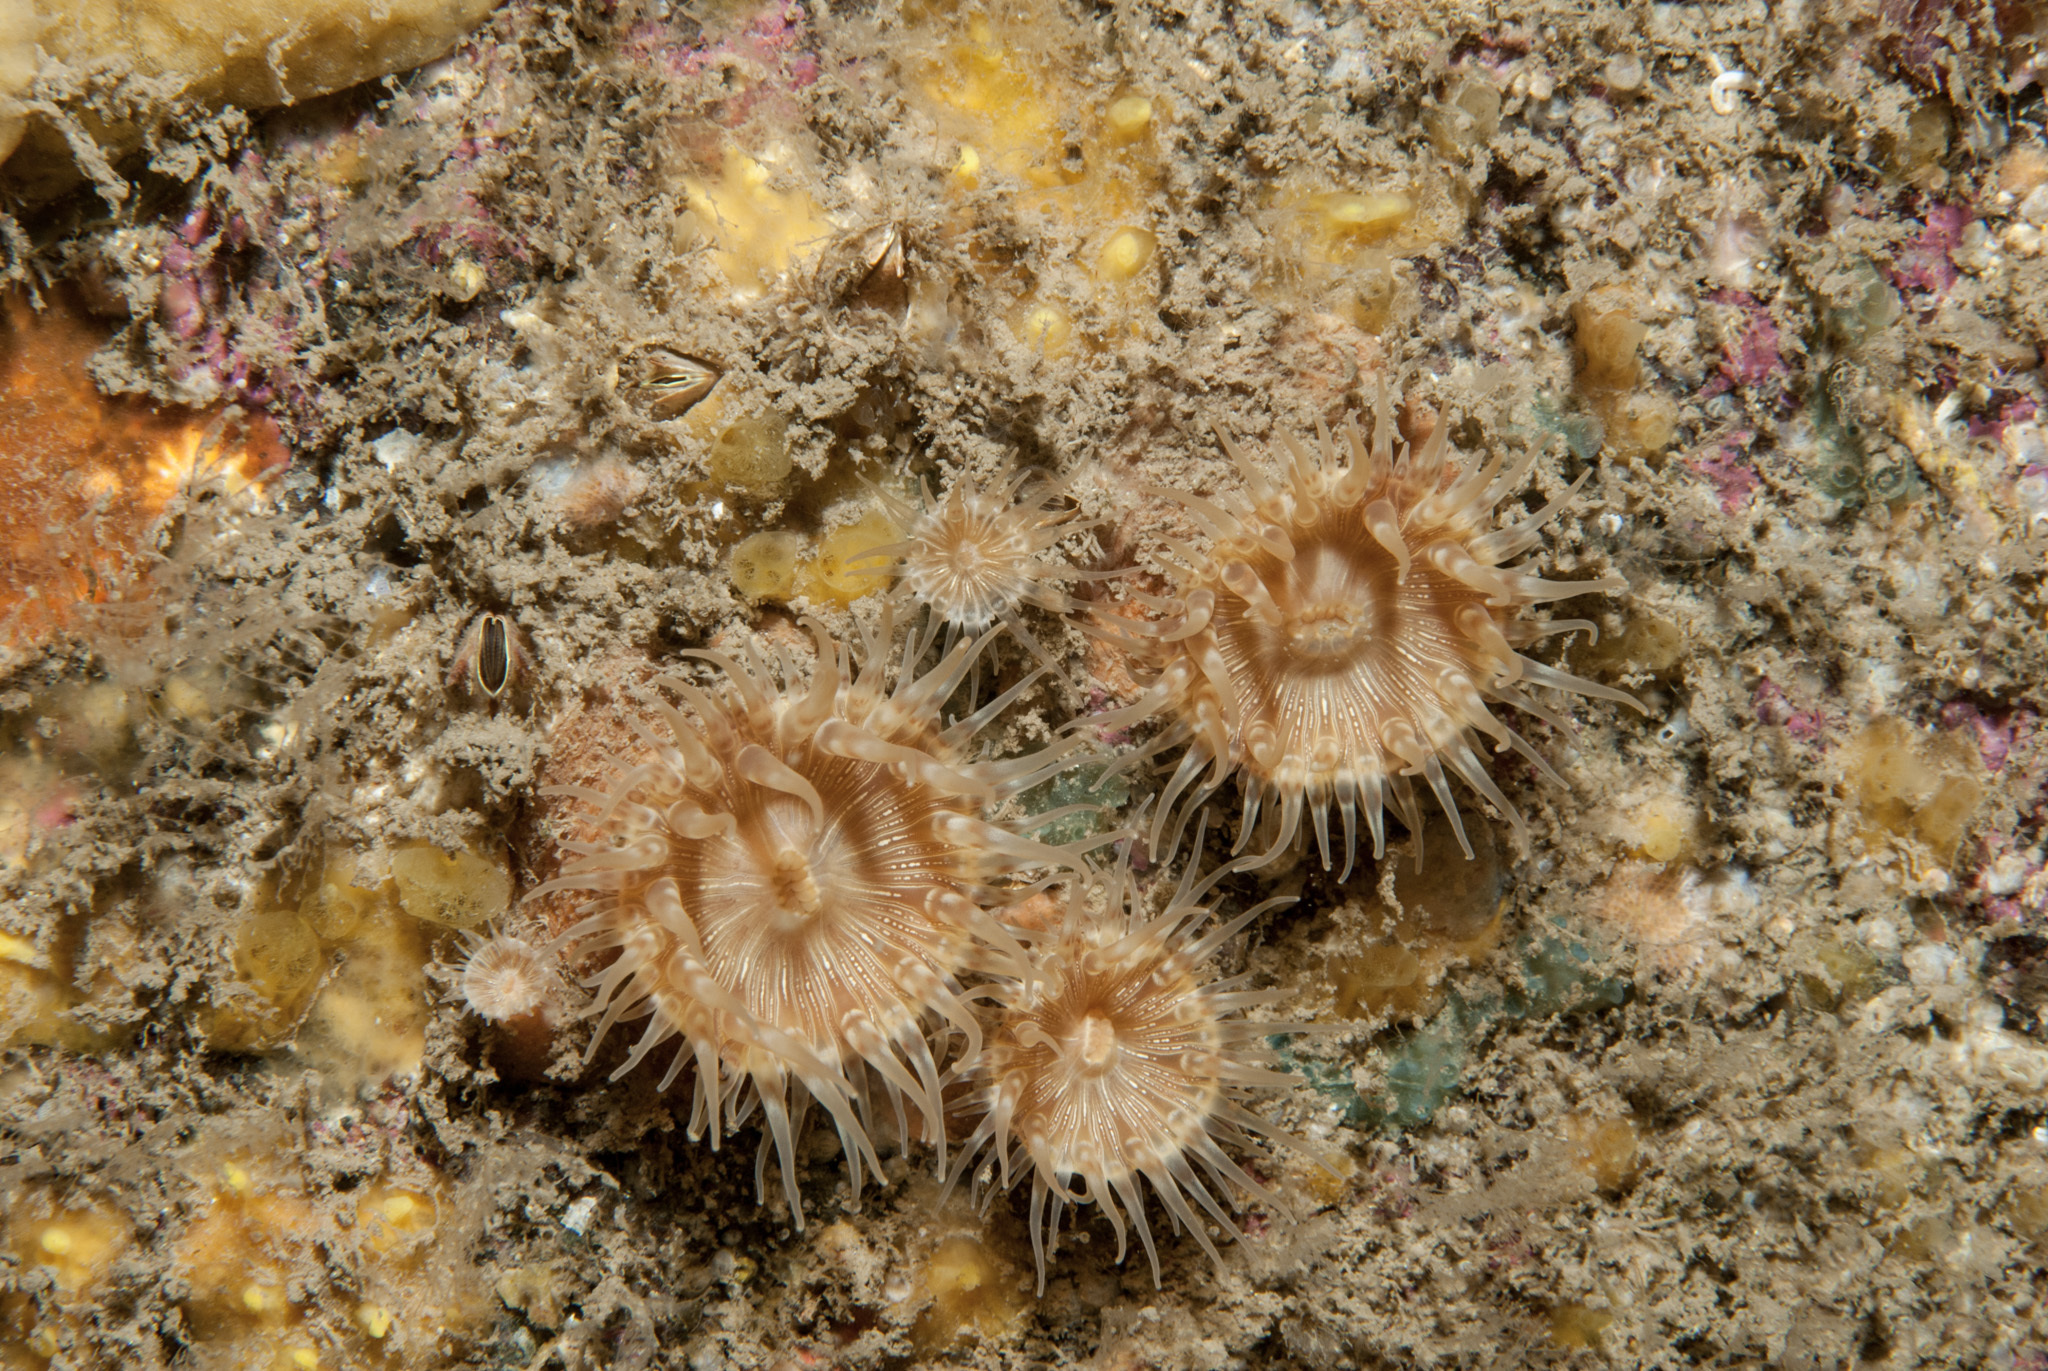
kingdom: Animalia
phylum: Cnidaria
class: Anthozoa
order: Actiniaria
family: Hormathiidae
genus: Hormathia
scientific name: Hormathia coronata
